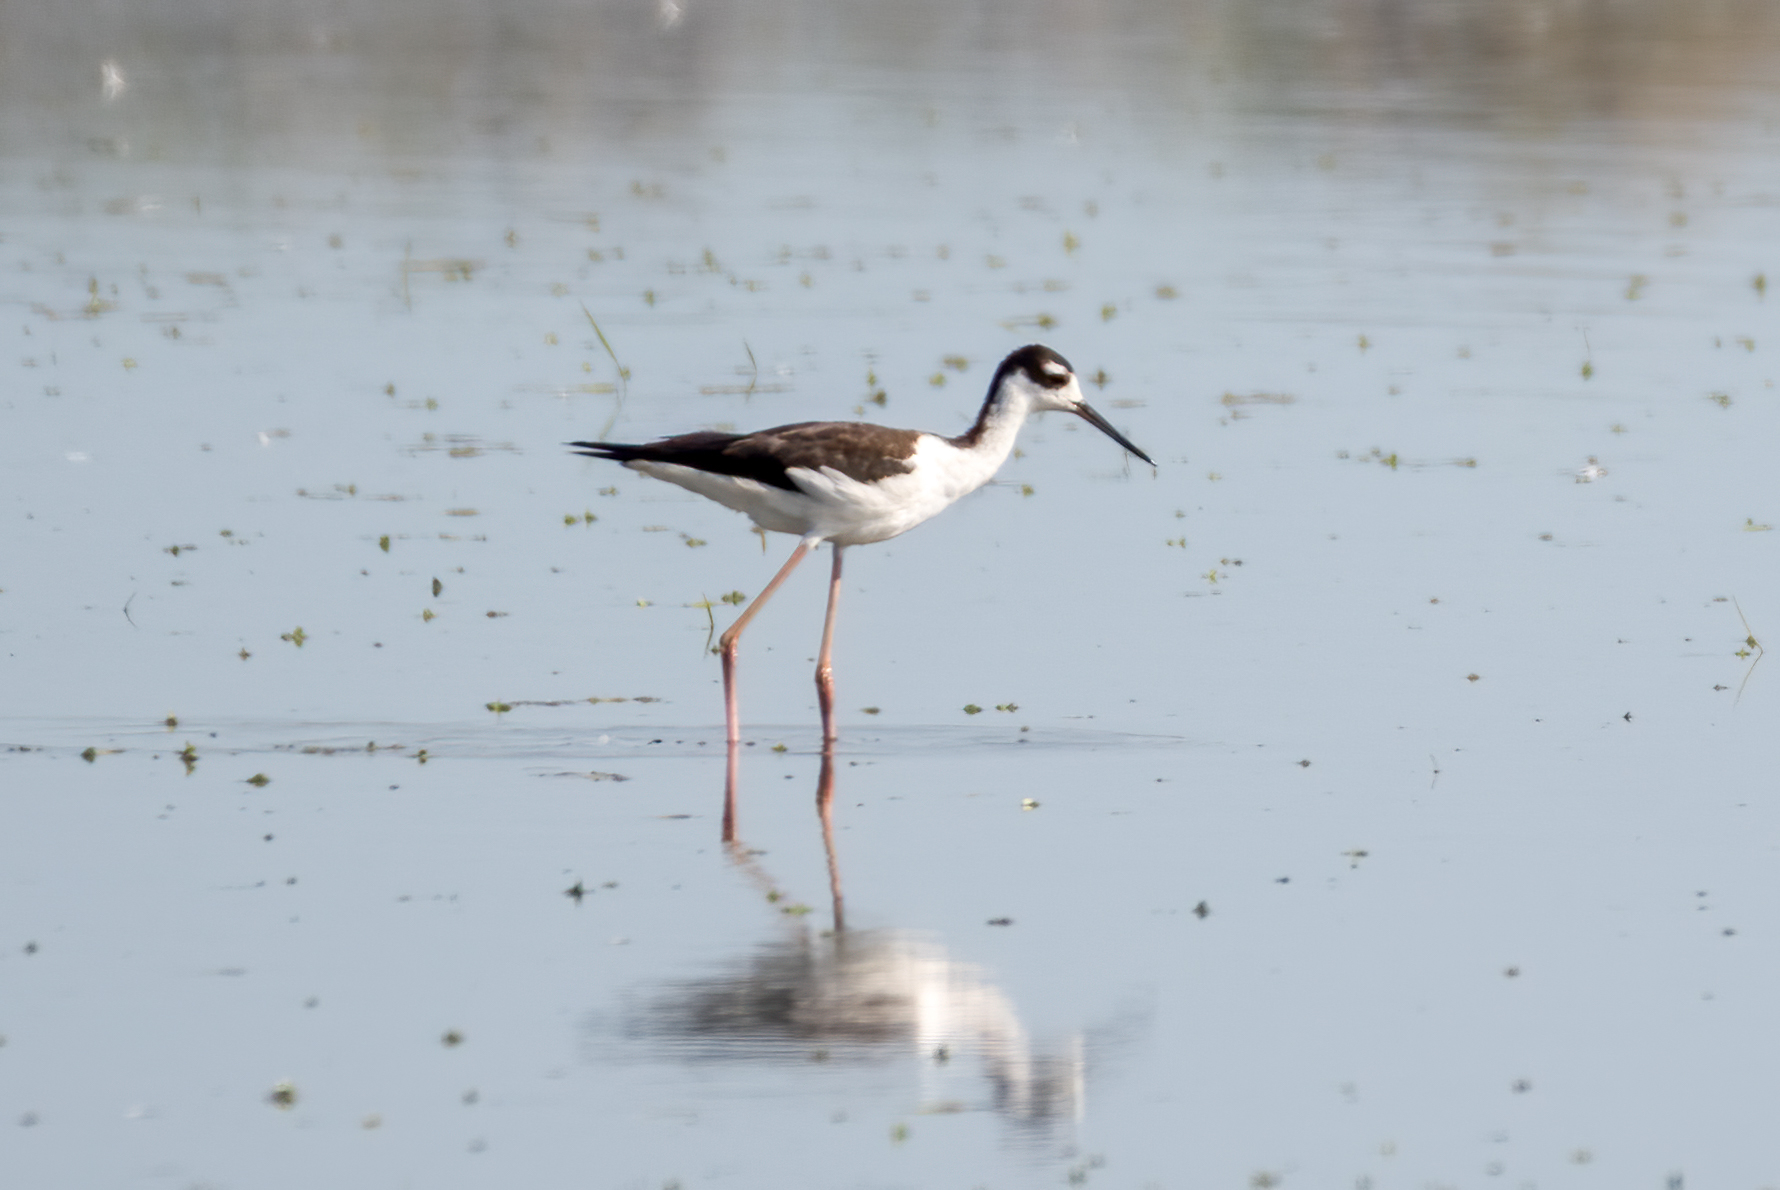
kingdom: Animalia
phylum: Chordata
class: Aves
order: Charadriiformes
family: Recurvirostridae
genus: Himantopus
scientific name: Himantopus mexicanus
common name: Black-necked stilt
